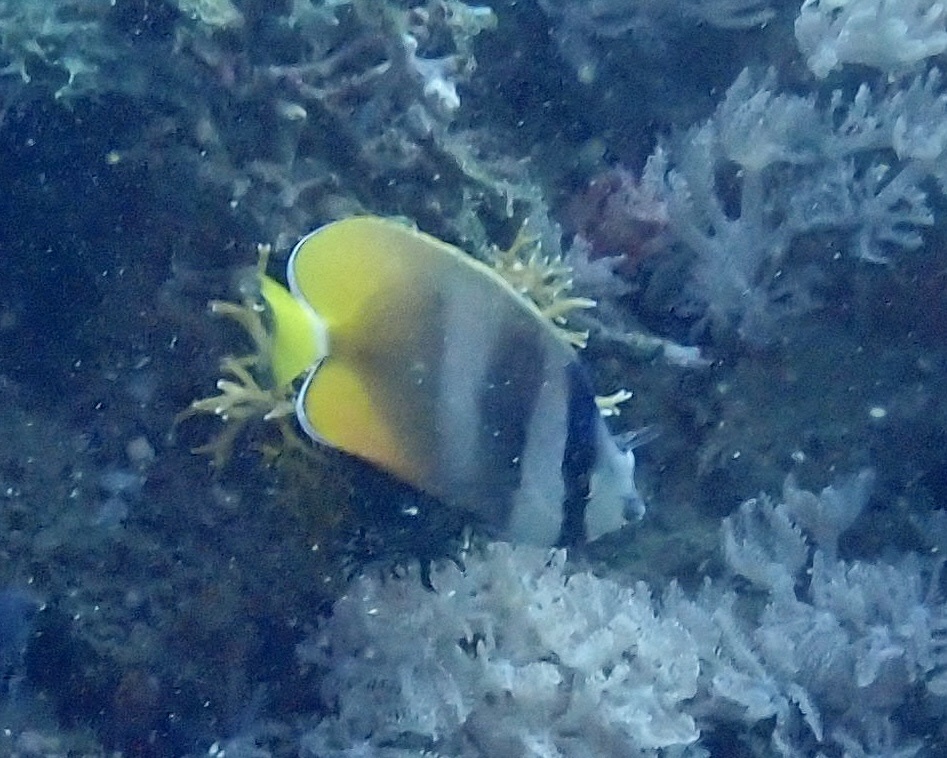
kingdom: Animalia
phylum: Chordata
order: Perciformes
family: Chaetodontidae
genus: Chaetodon
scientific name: Chaetodon kleinii
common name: Klein's butterflyfish
